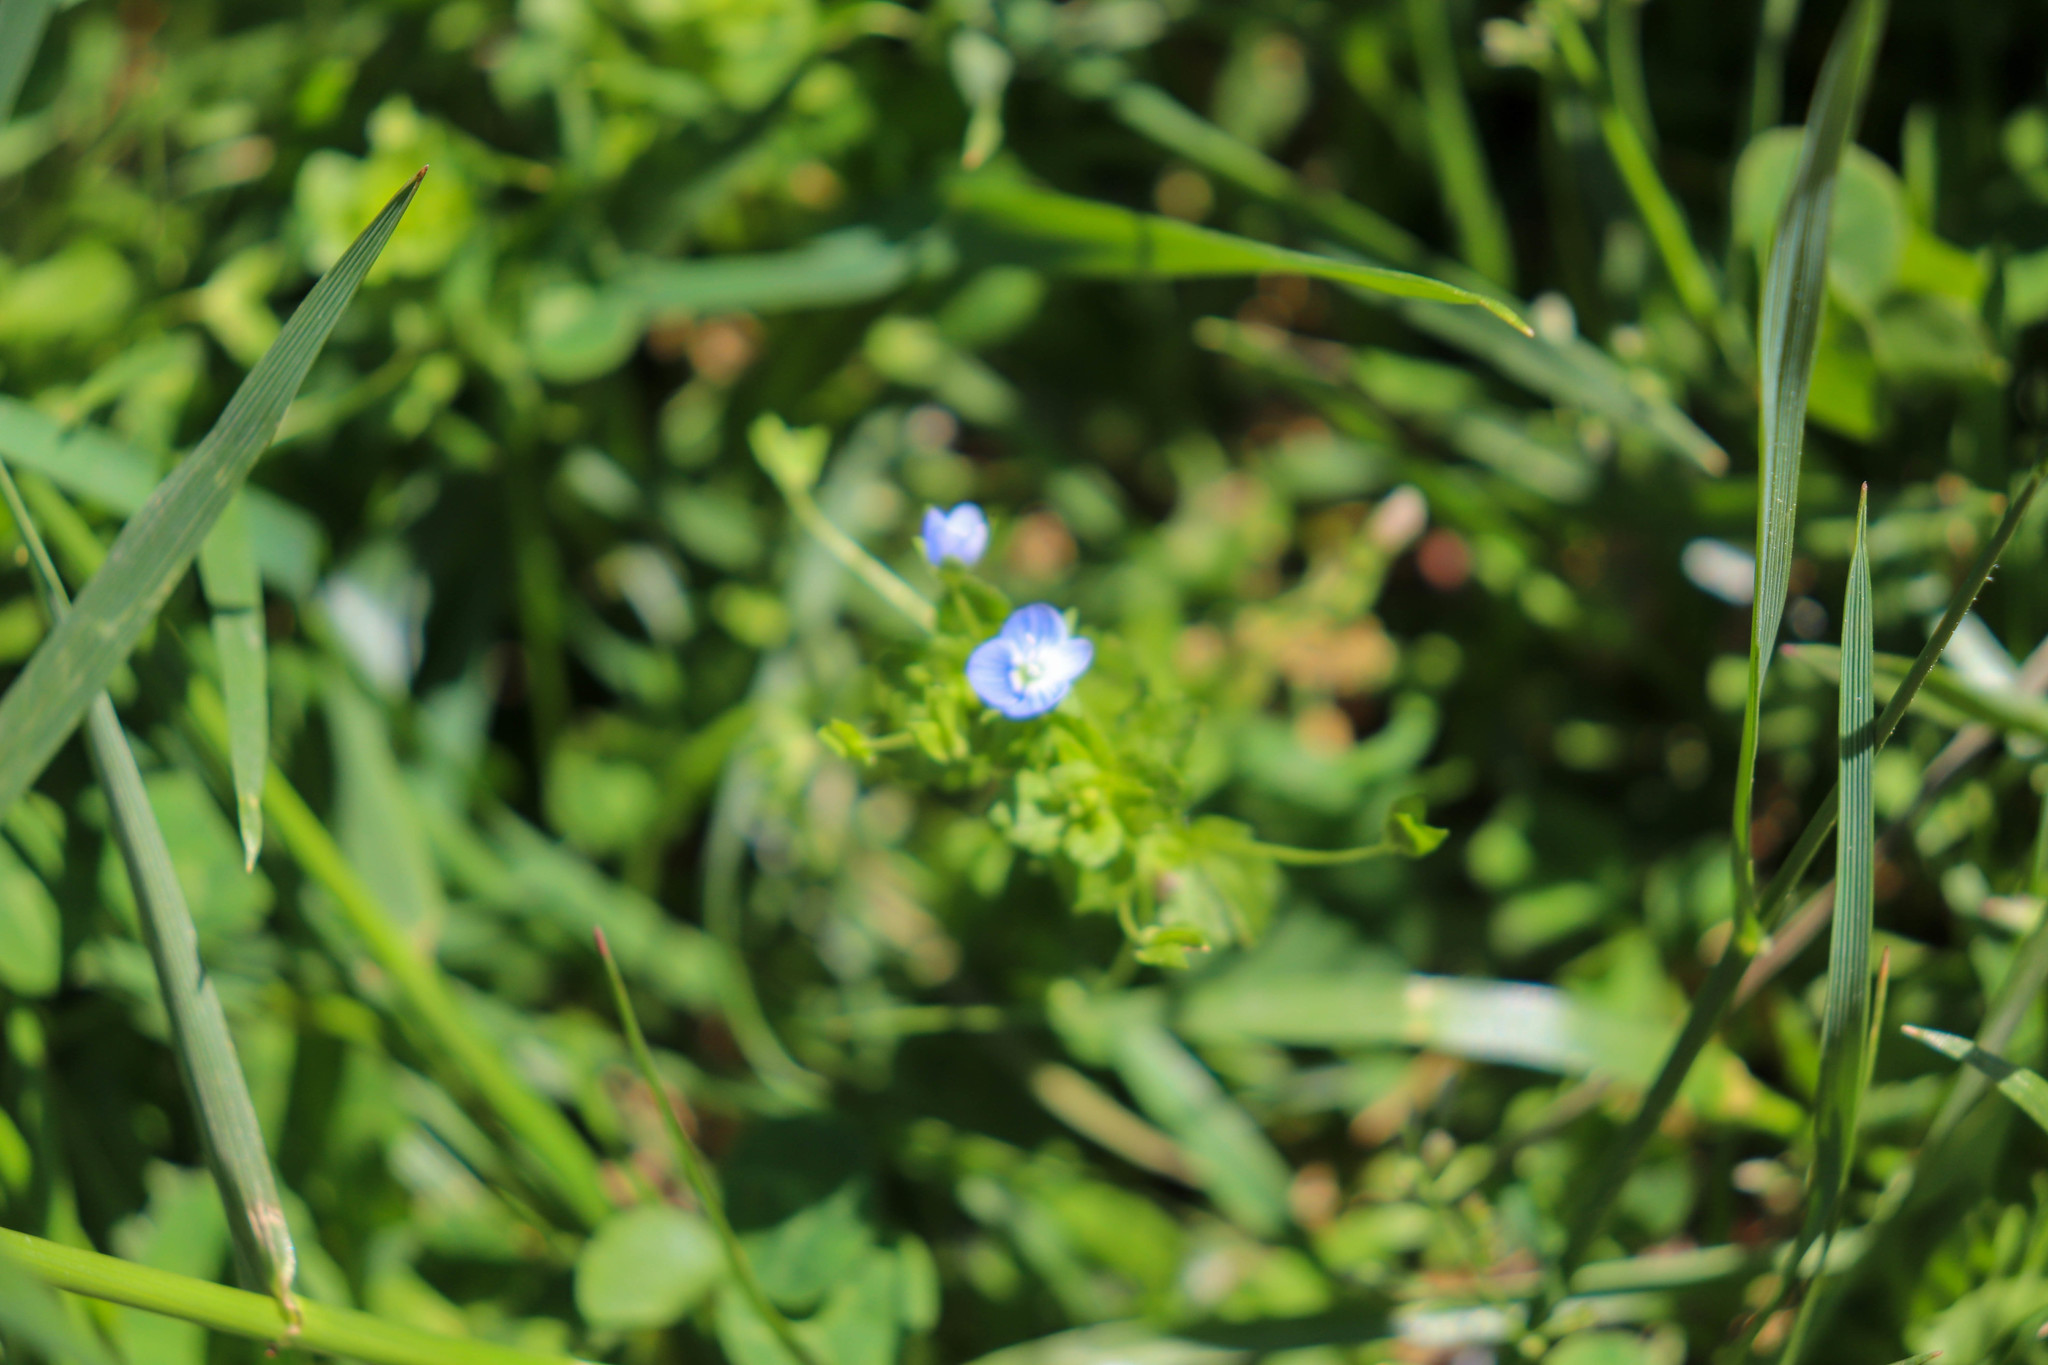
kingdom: Plantae
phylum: Tracheophyta
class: Magnoliopsida
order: Lamiales
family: Plantaginaceae
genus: Veronica
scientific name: Veronica persica
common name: Common field-speedwell
